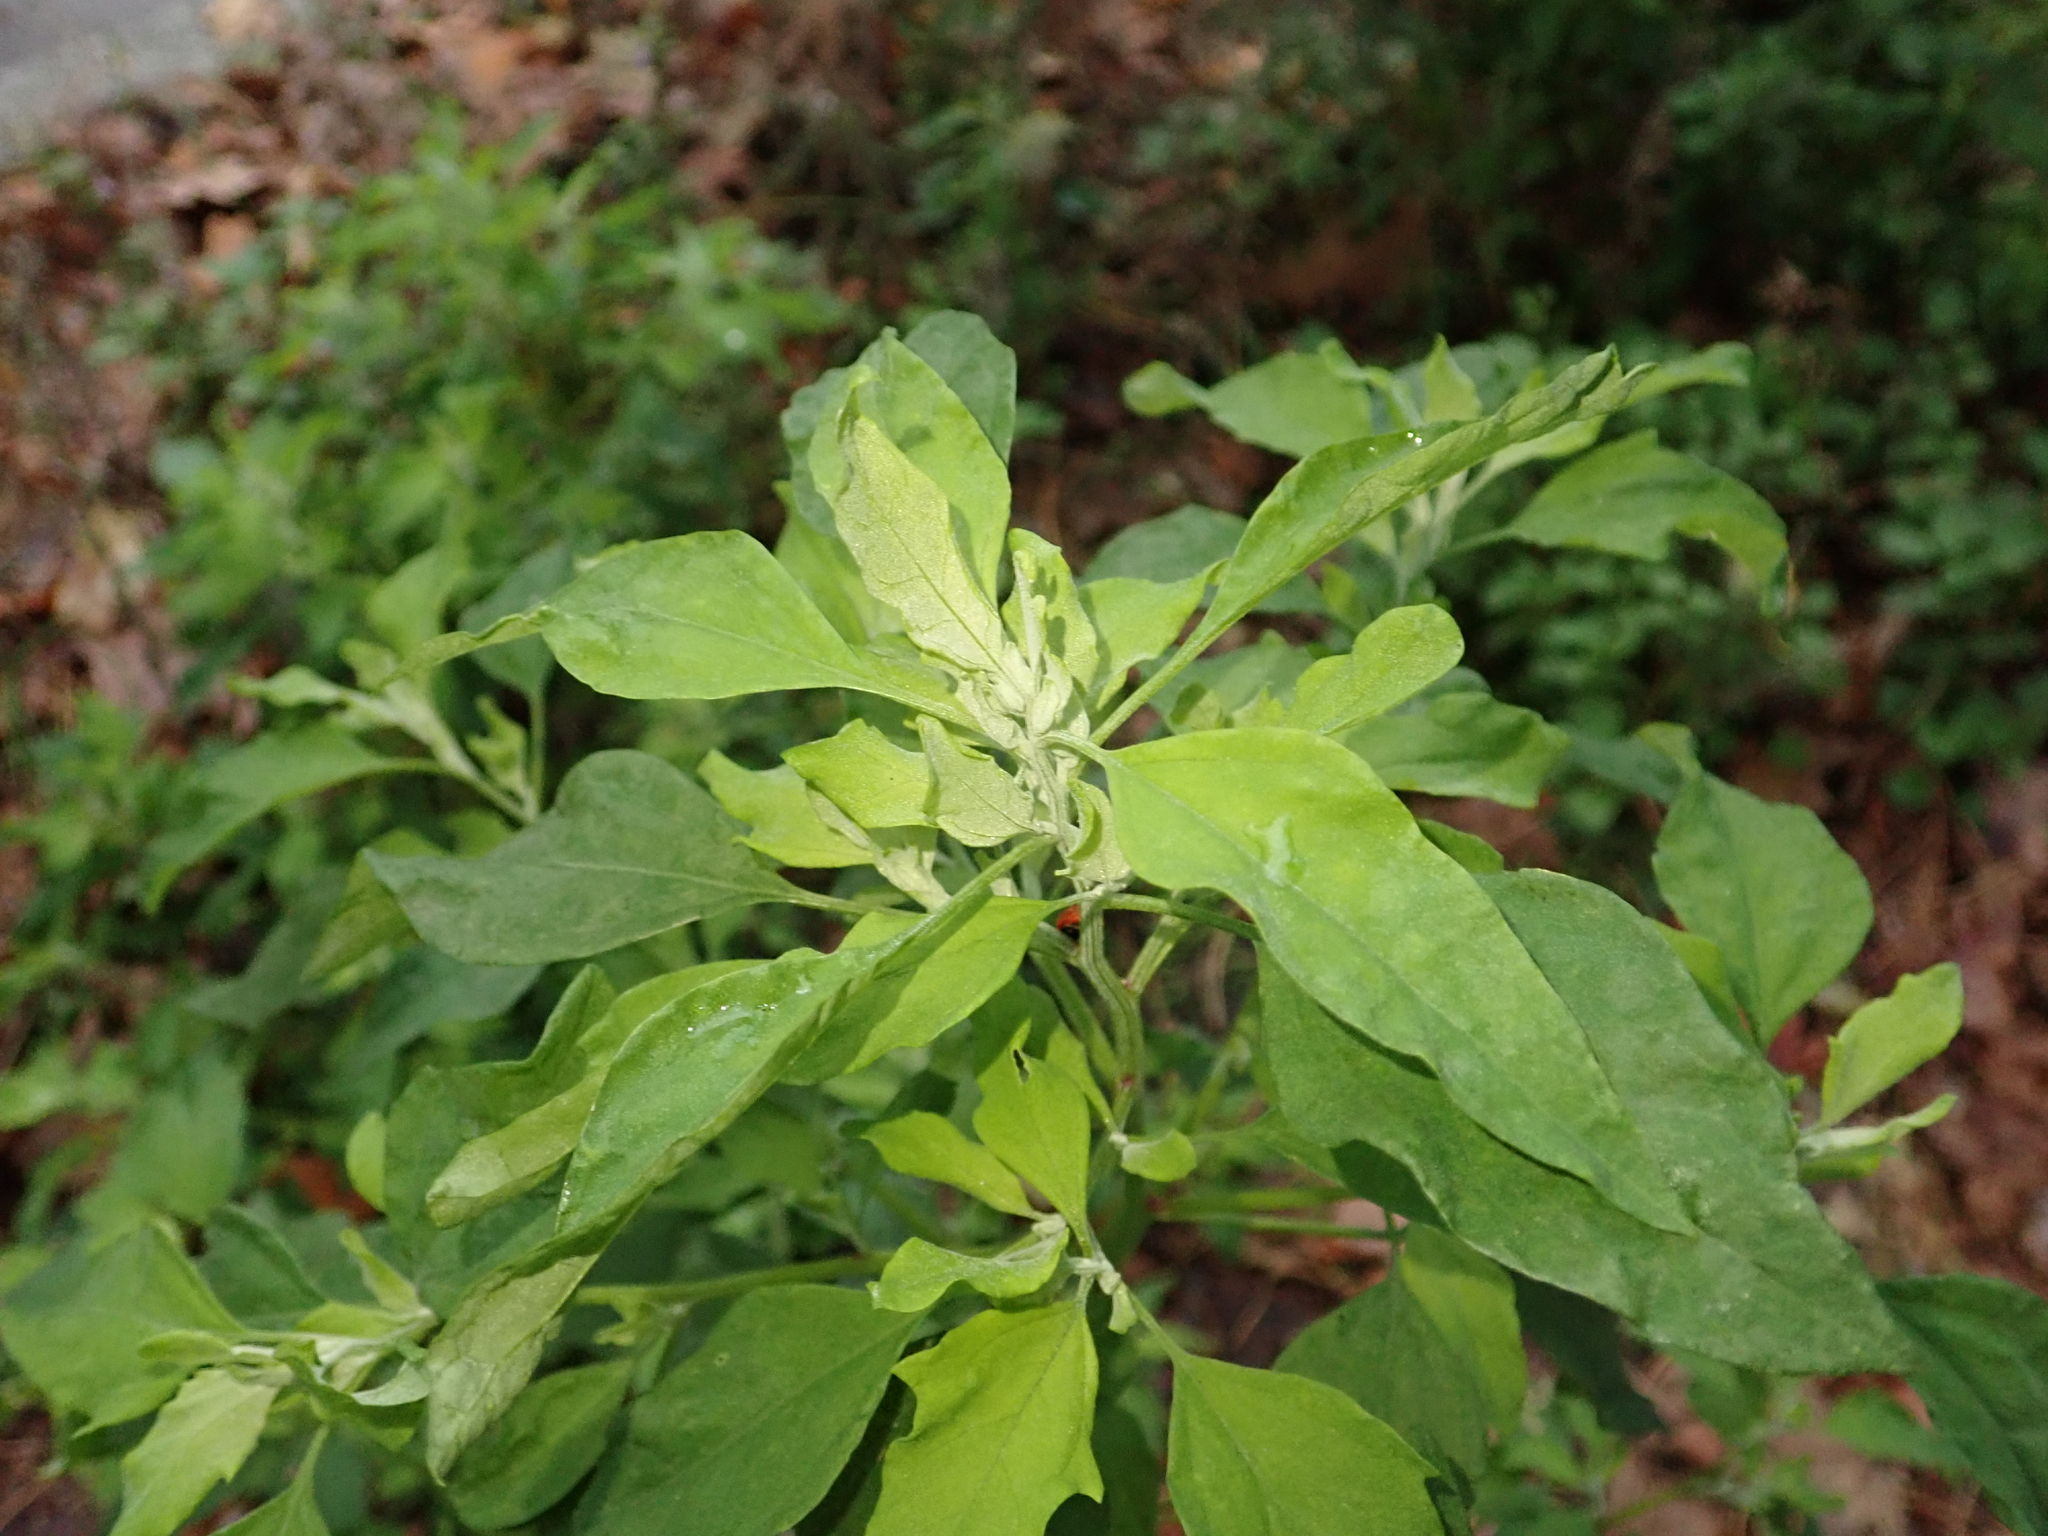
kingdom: Plantae
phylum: Tracheophyta
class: Magnoliopsida
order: Caryophyllales
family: Amaranthaceae
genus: Chenopodium
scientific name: Chenopodium album
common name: Fat-hen
